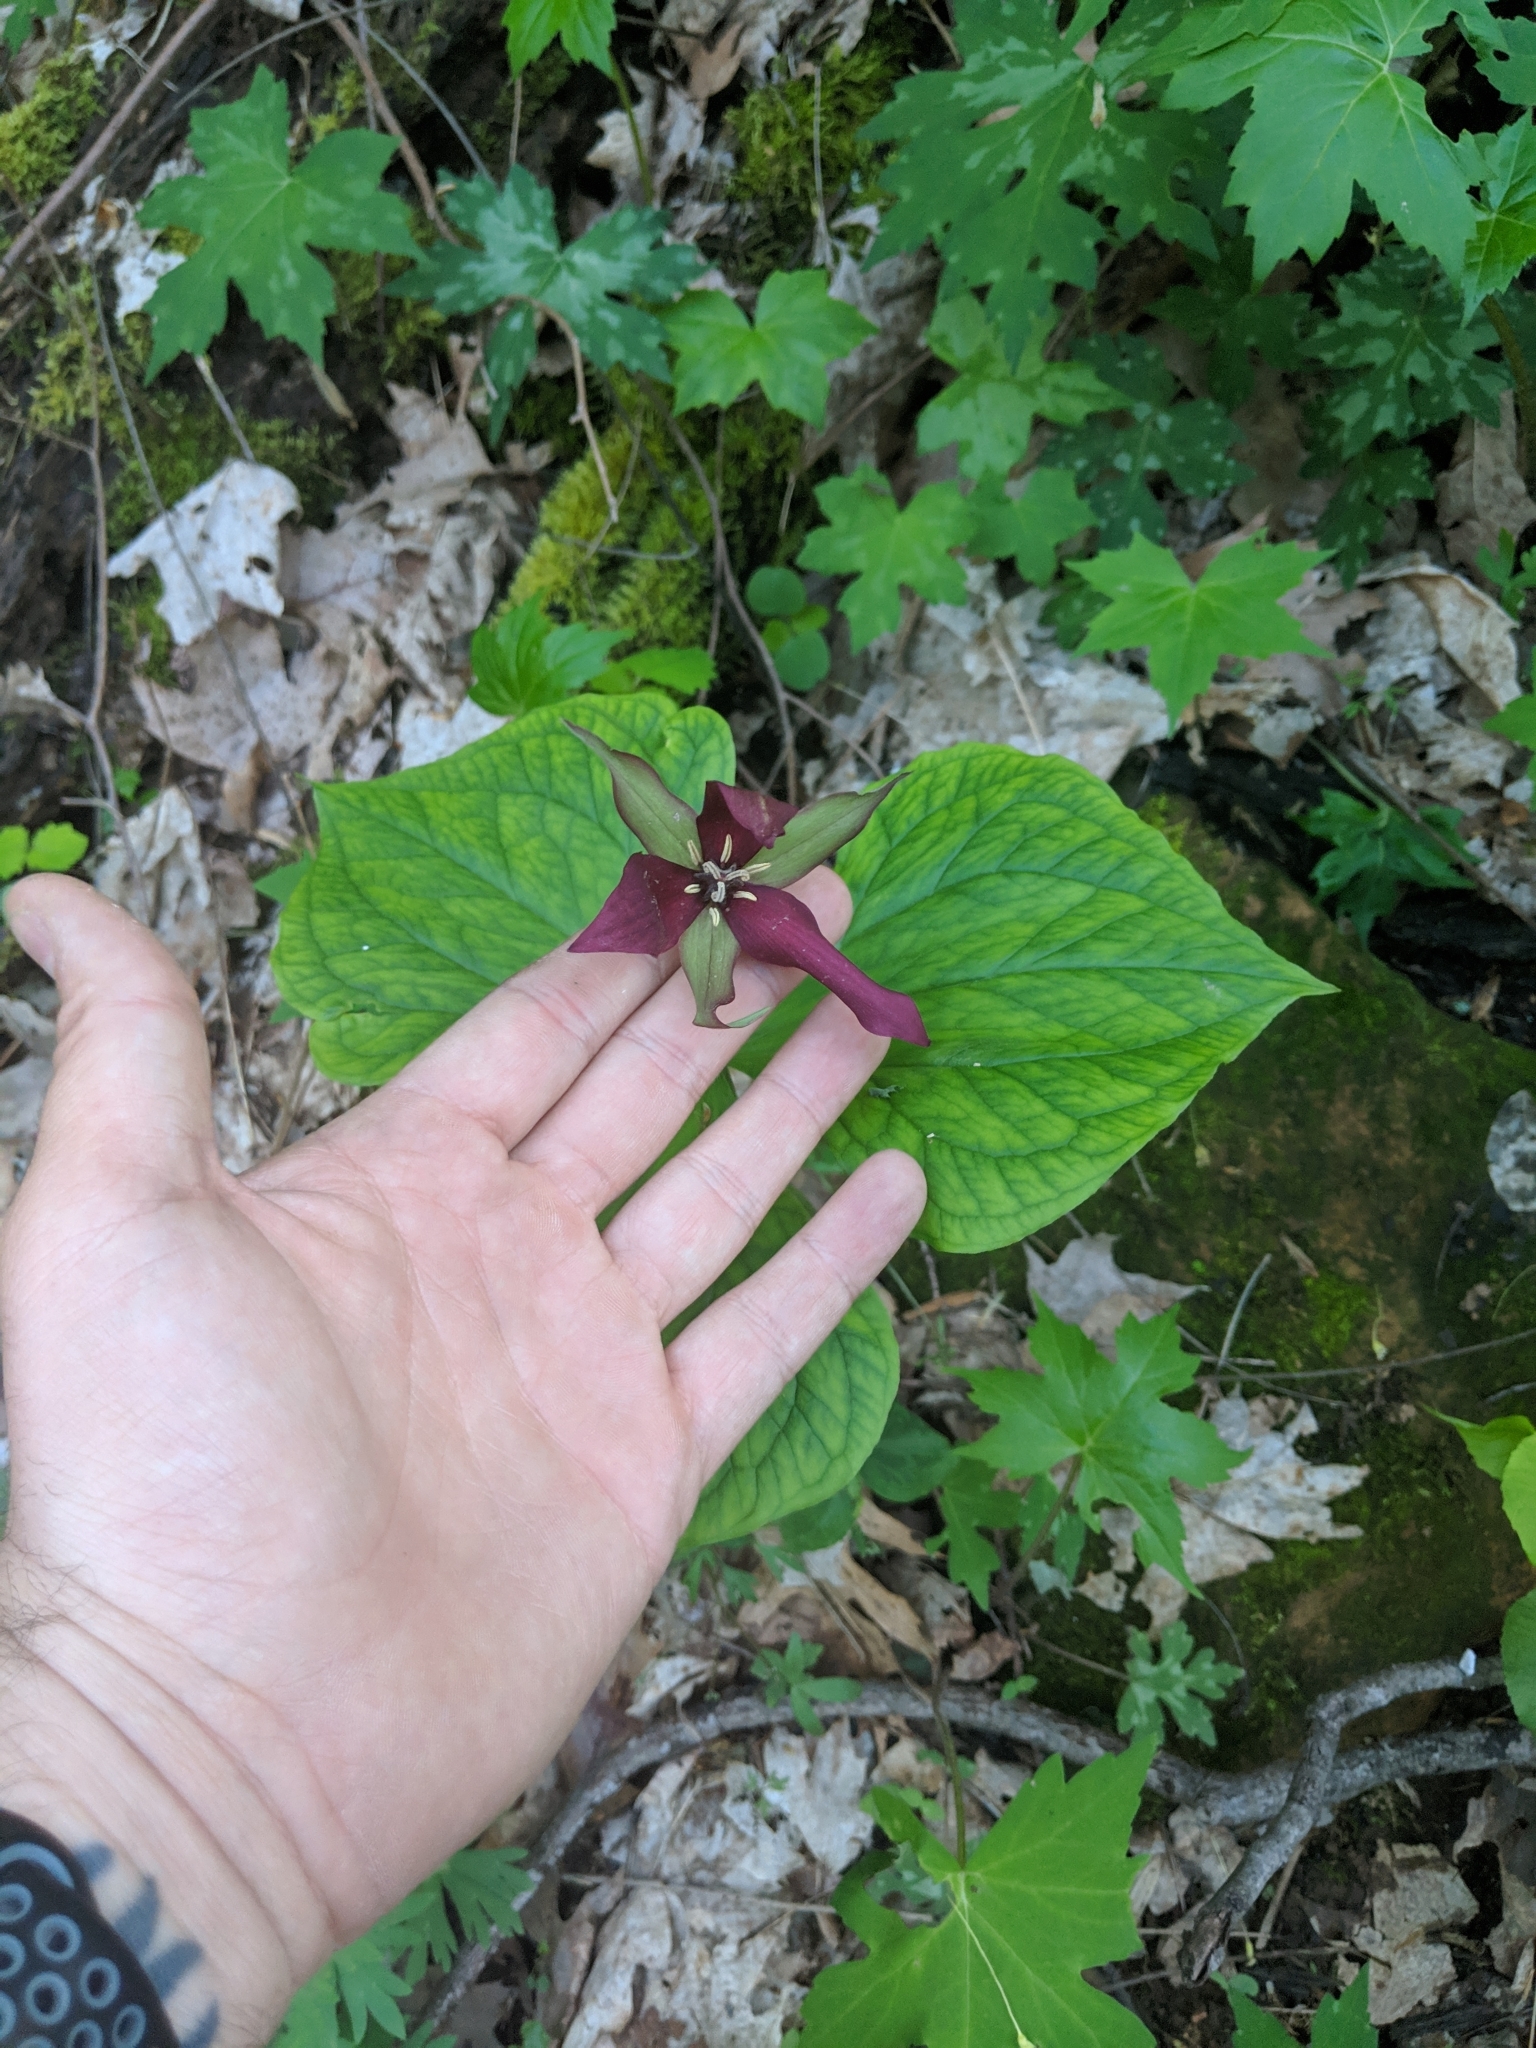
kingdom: Plantae
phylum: Tracheophyta
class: Liliopsida
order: Liliales
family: Melanthiaceae
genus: Trillium
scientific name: Trillium erectum
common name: Purple trillium
